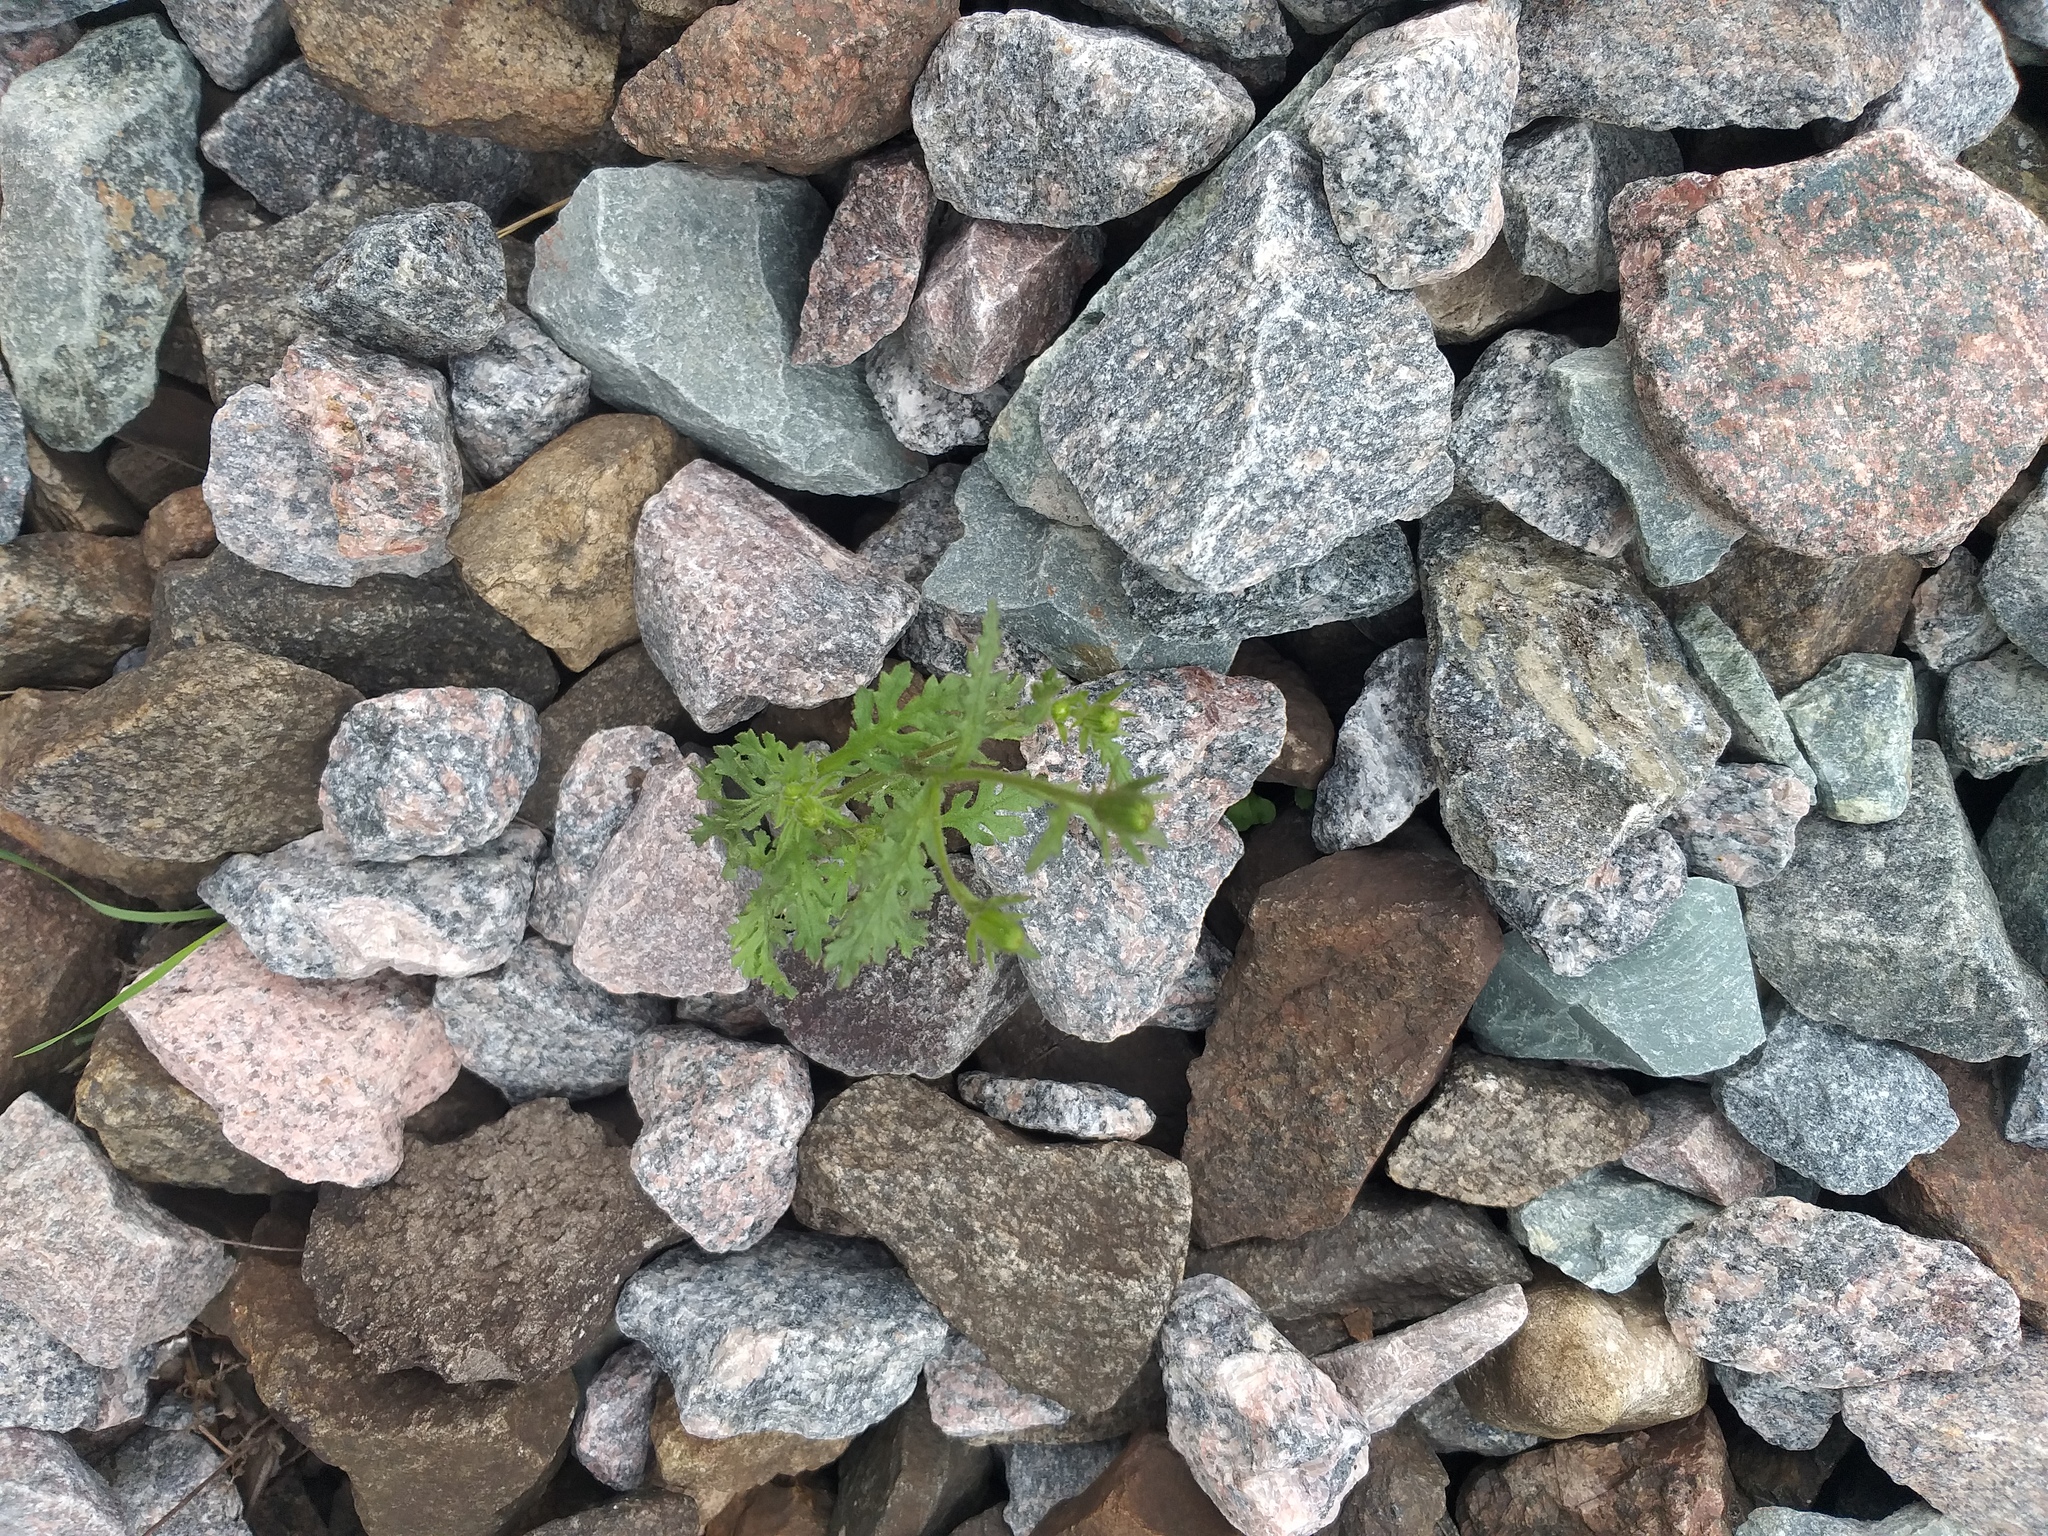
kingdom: Plantae
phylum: Tracheophyta
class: Magnoliopsida
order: Asterales
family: Asteraceae
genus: Senecio
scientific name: Senecio viscosus
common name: Sticky groundsel
